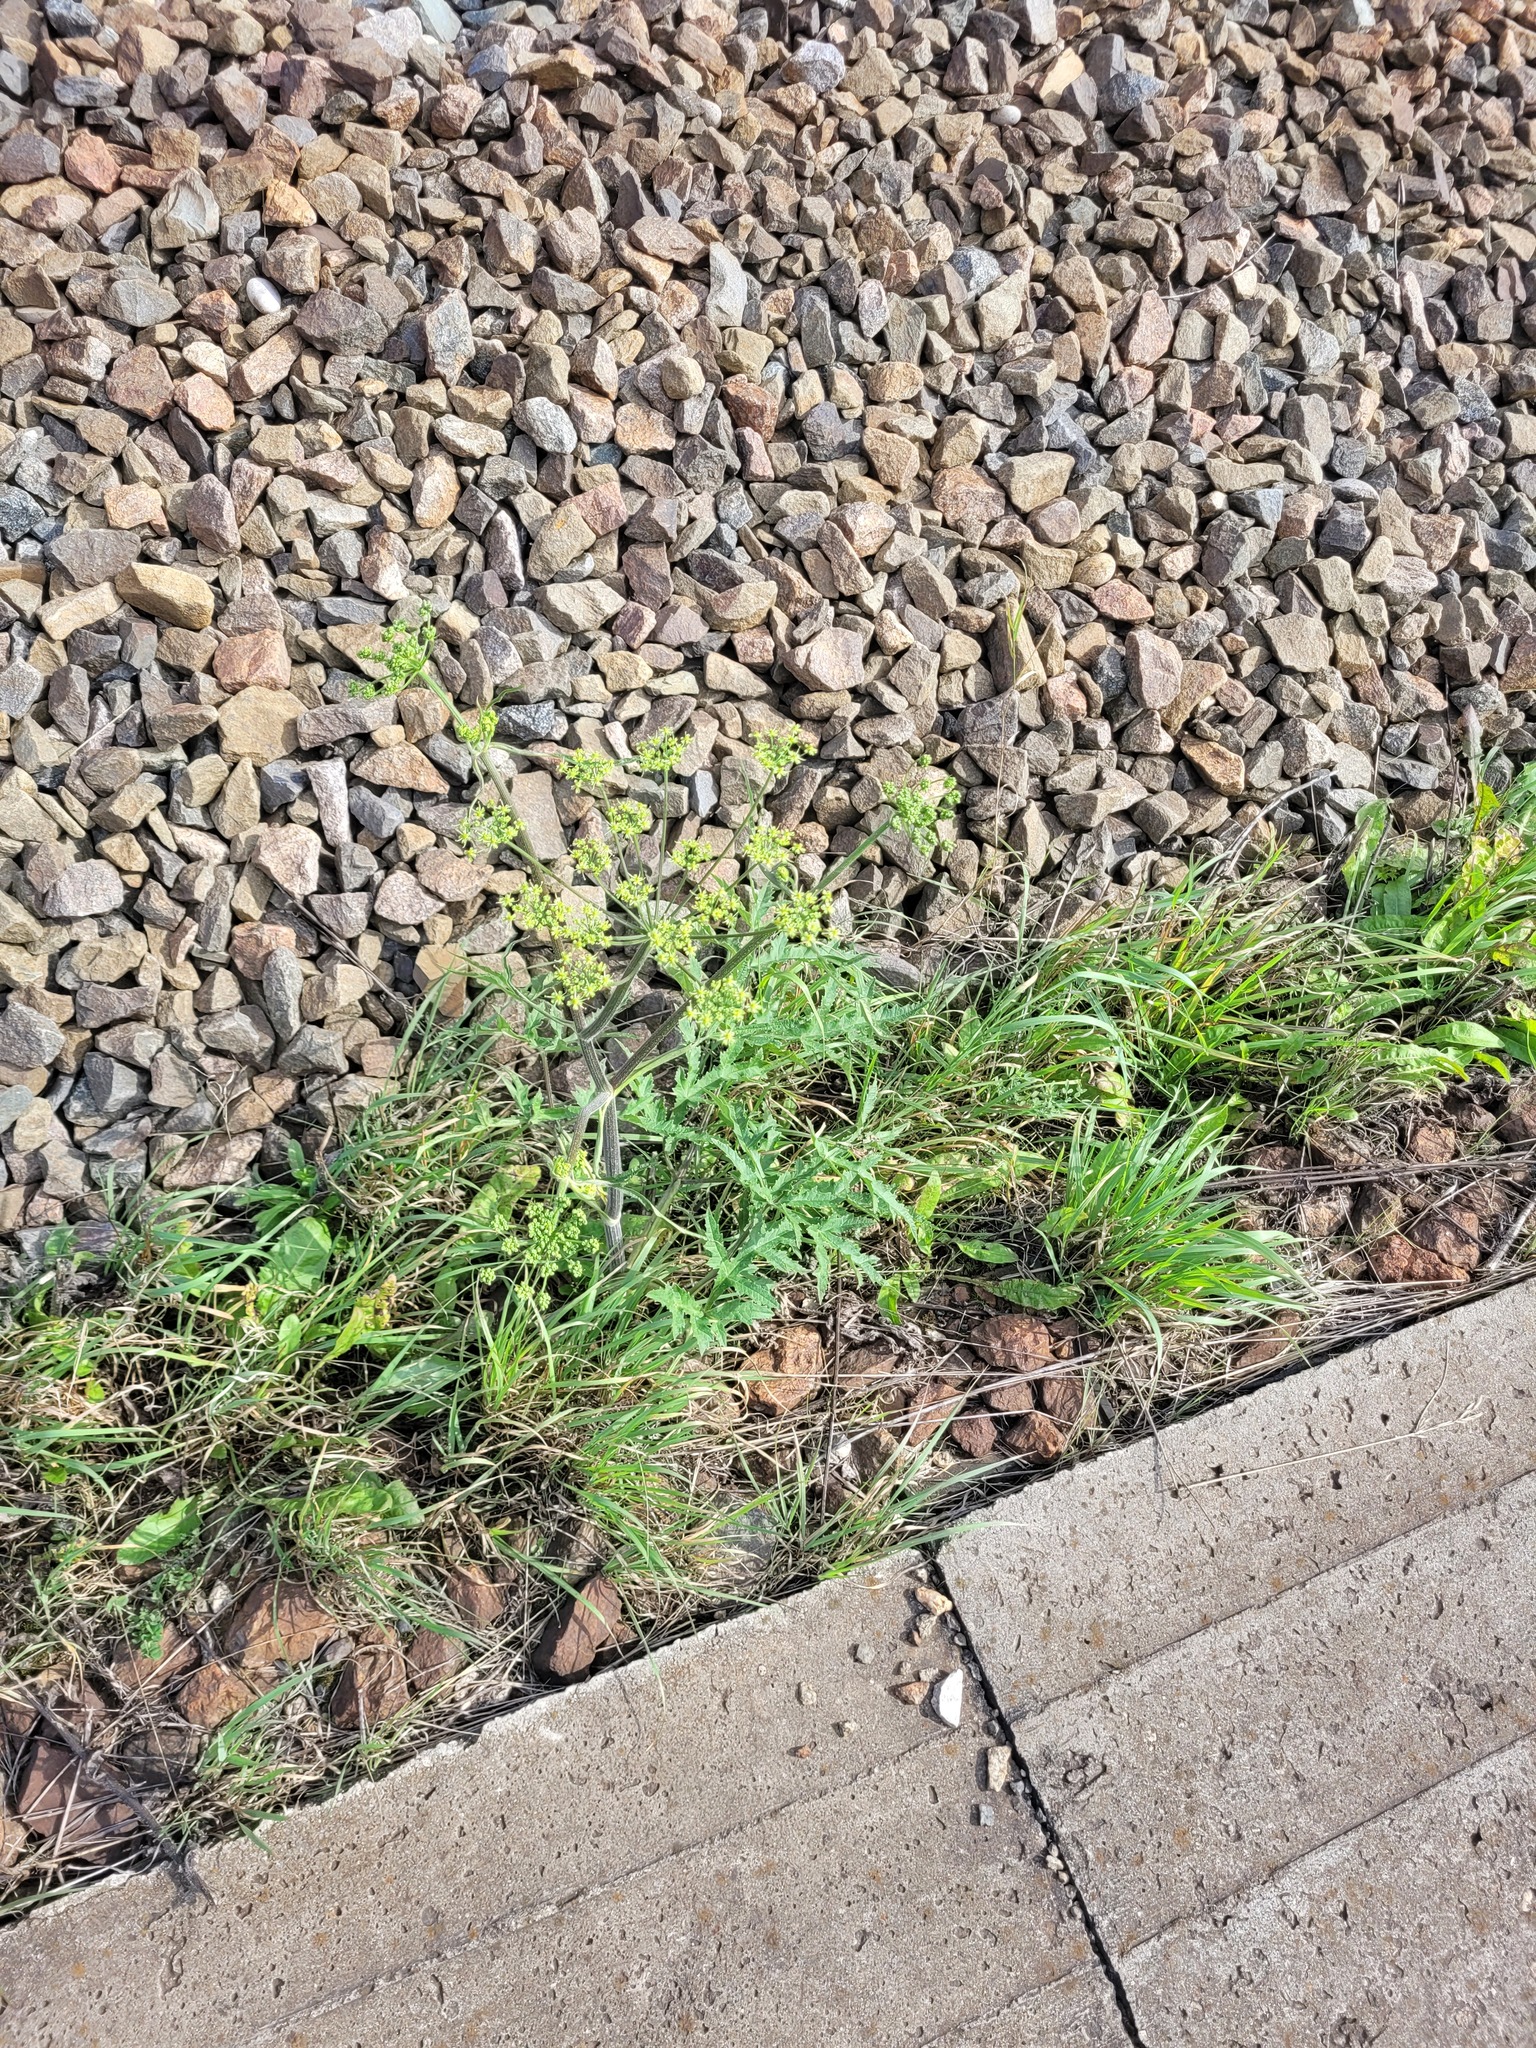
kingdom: Plantae
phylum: Tracheophyta
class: Magnoliopsida
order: Apiales
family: Apiaceae
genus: Heracleum
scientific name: Heracleum sphondylium
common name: Hogweed
